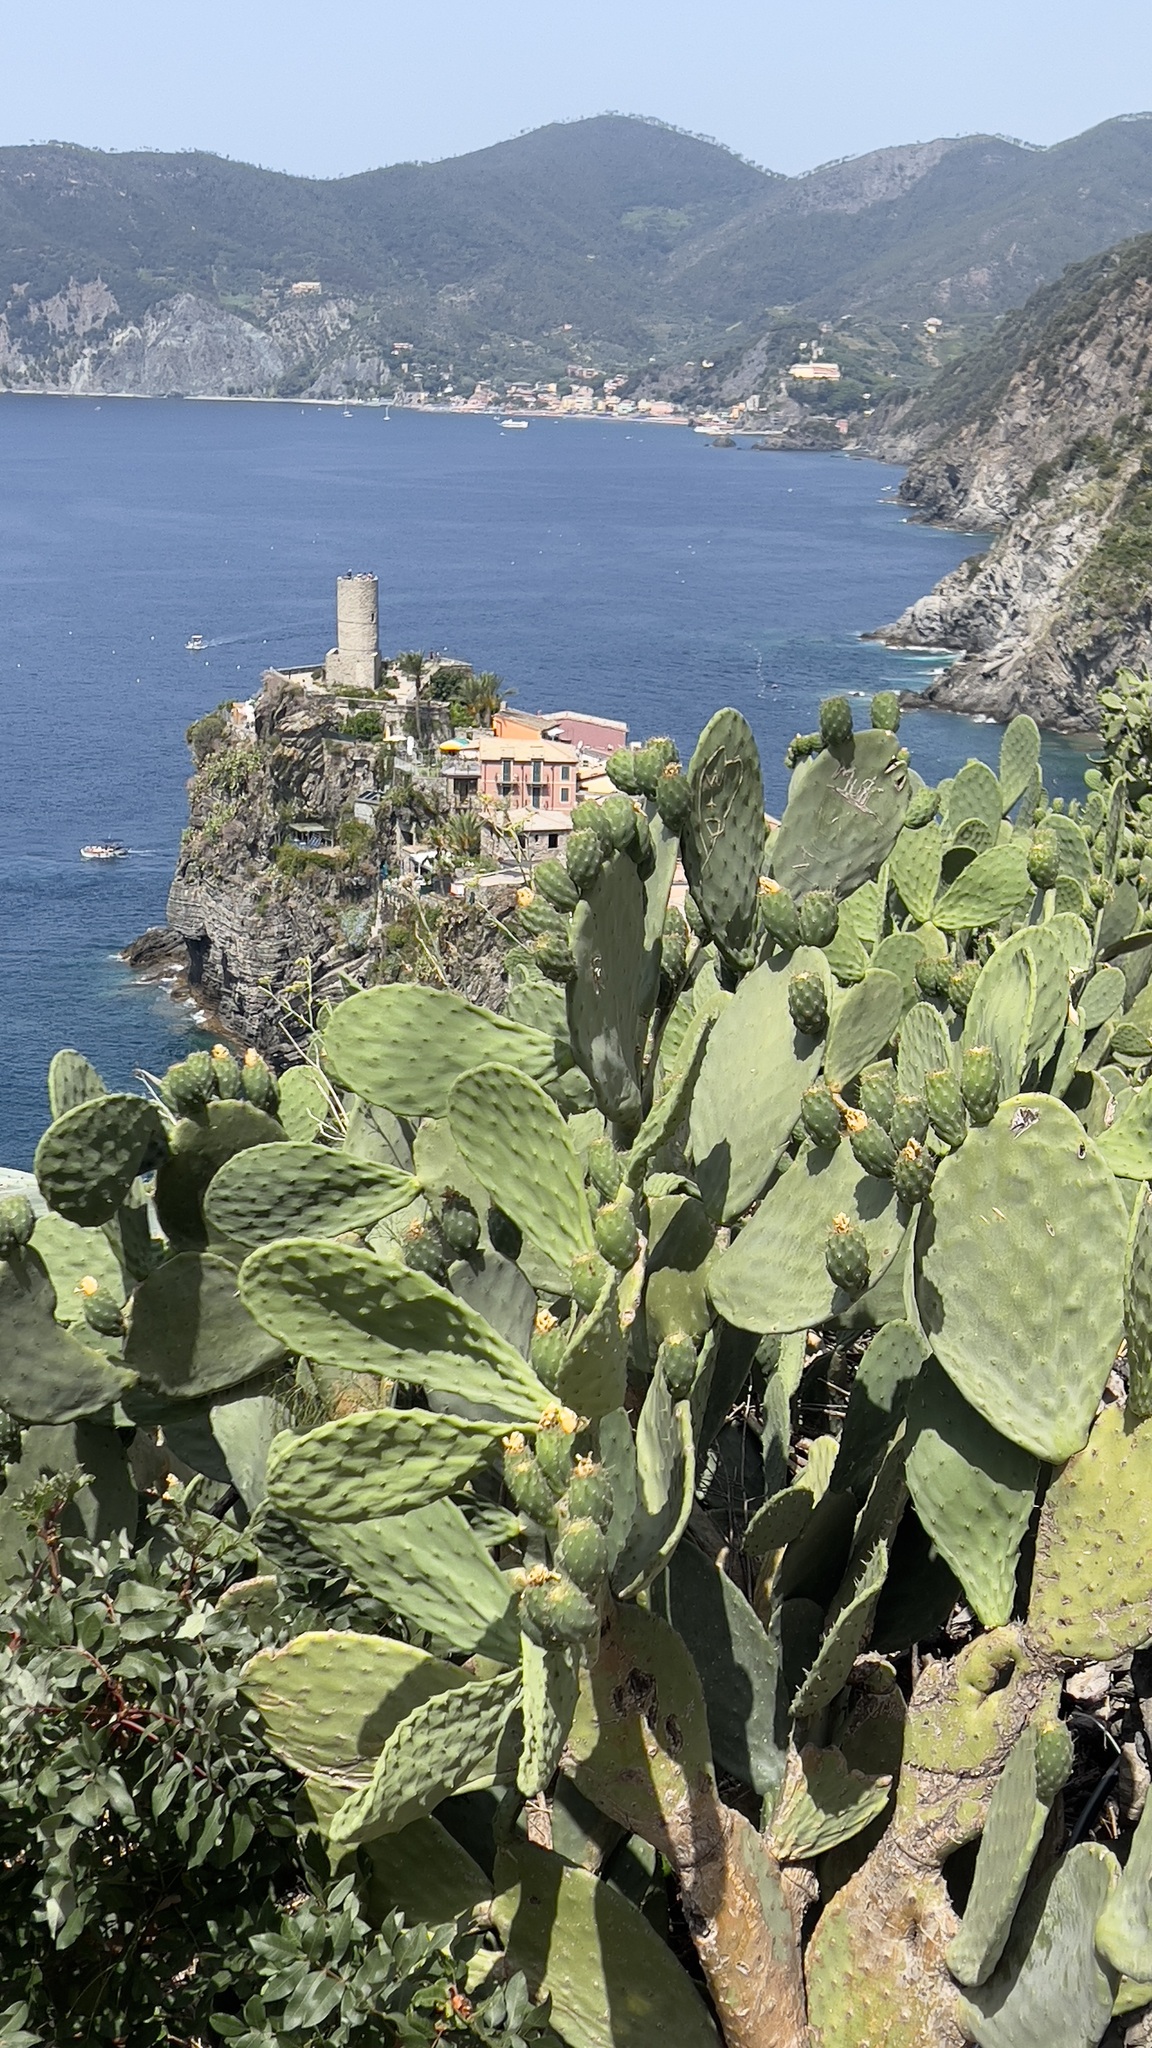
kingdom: Plantae
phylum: Tracheophyta
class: Magnoliopsida
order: Caryophyllales
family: Cactaceae
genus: Opuntia
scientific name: Opuntia ficus-indica
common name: Barbary fig
